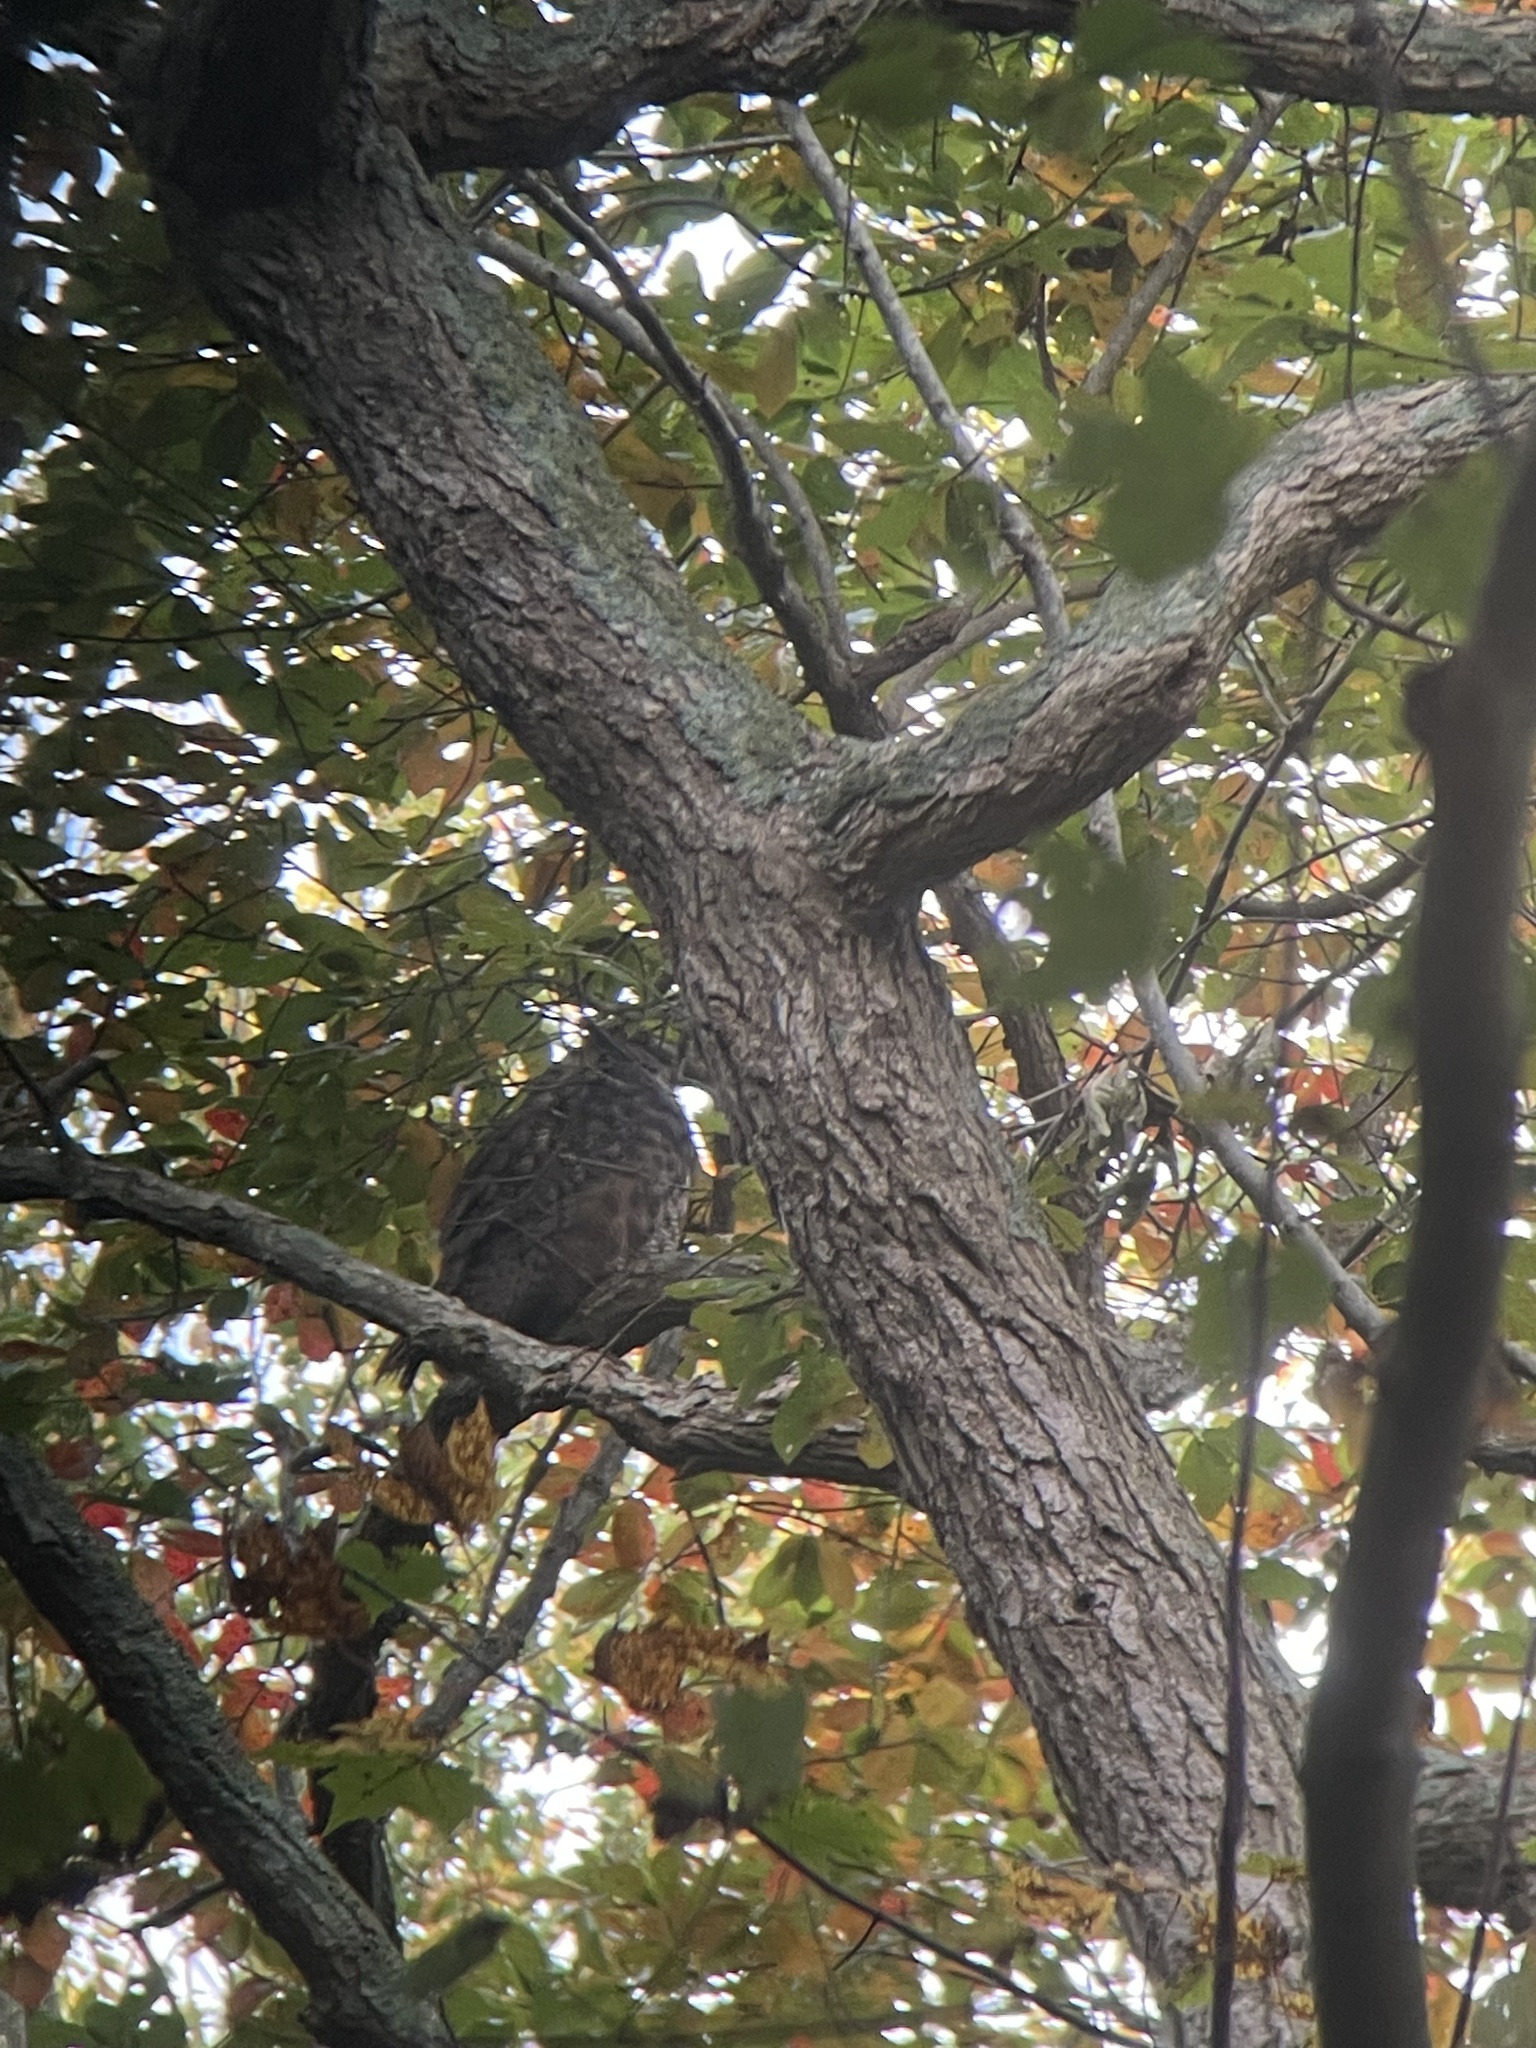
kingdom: Animalia
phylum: Chordata
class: Aves
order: Strigiformes
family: Strigidae
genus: Bubo
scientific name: Bubo virginianus
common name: Great horned owl
